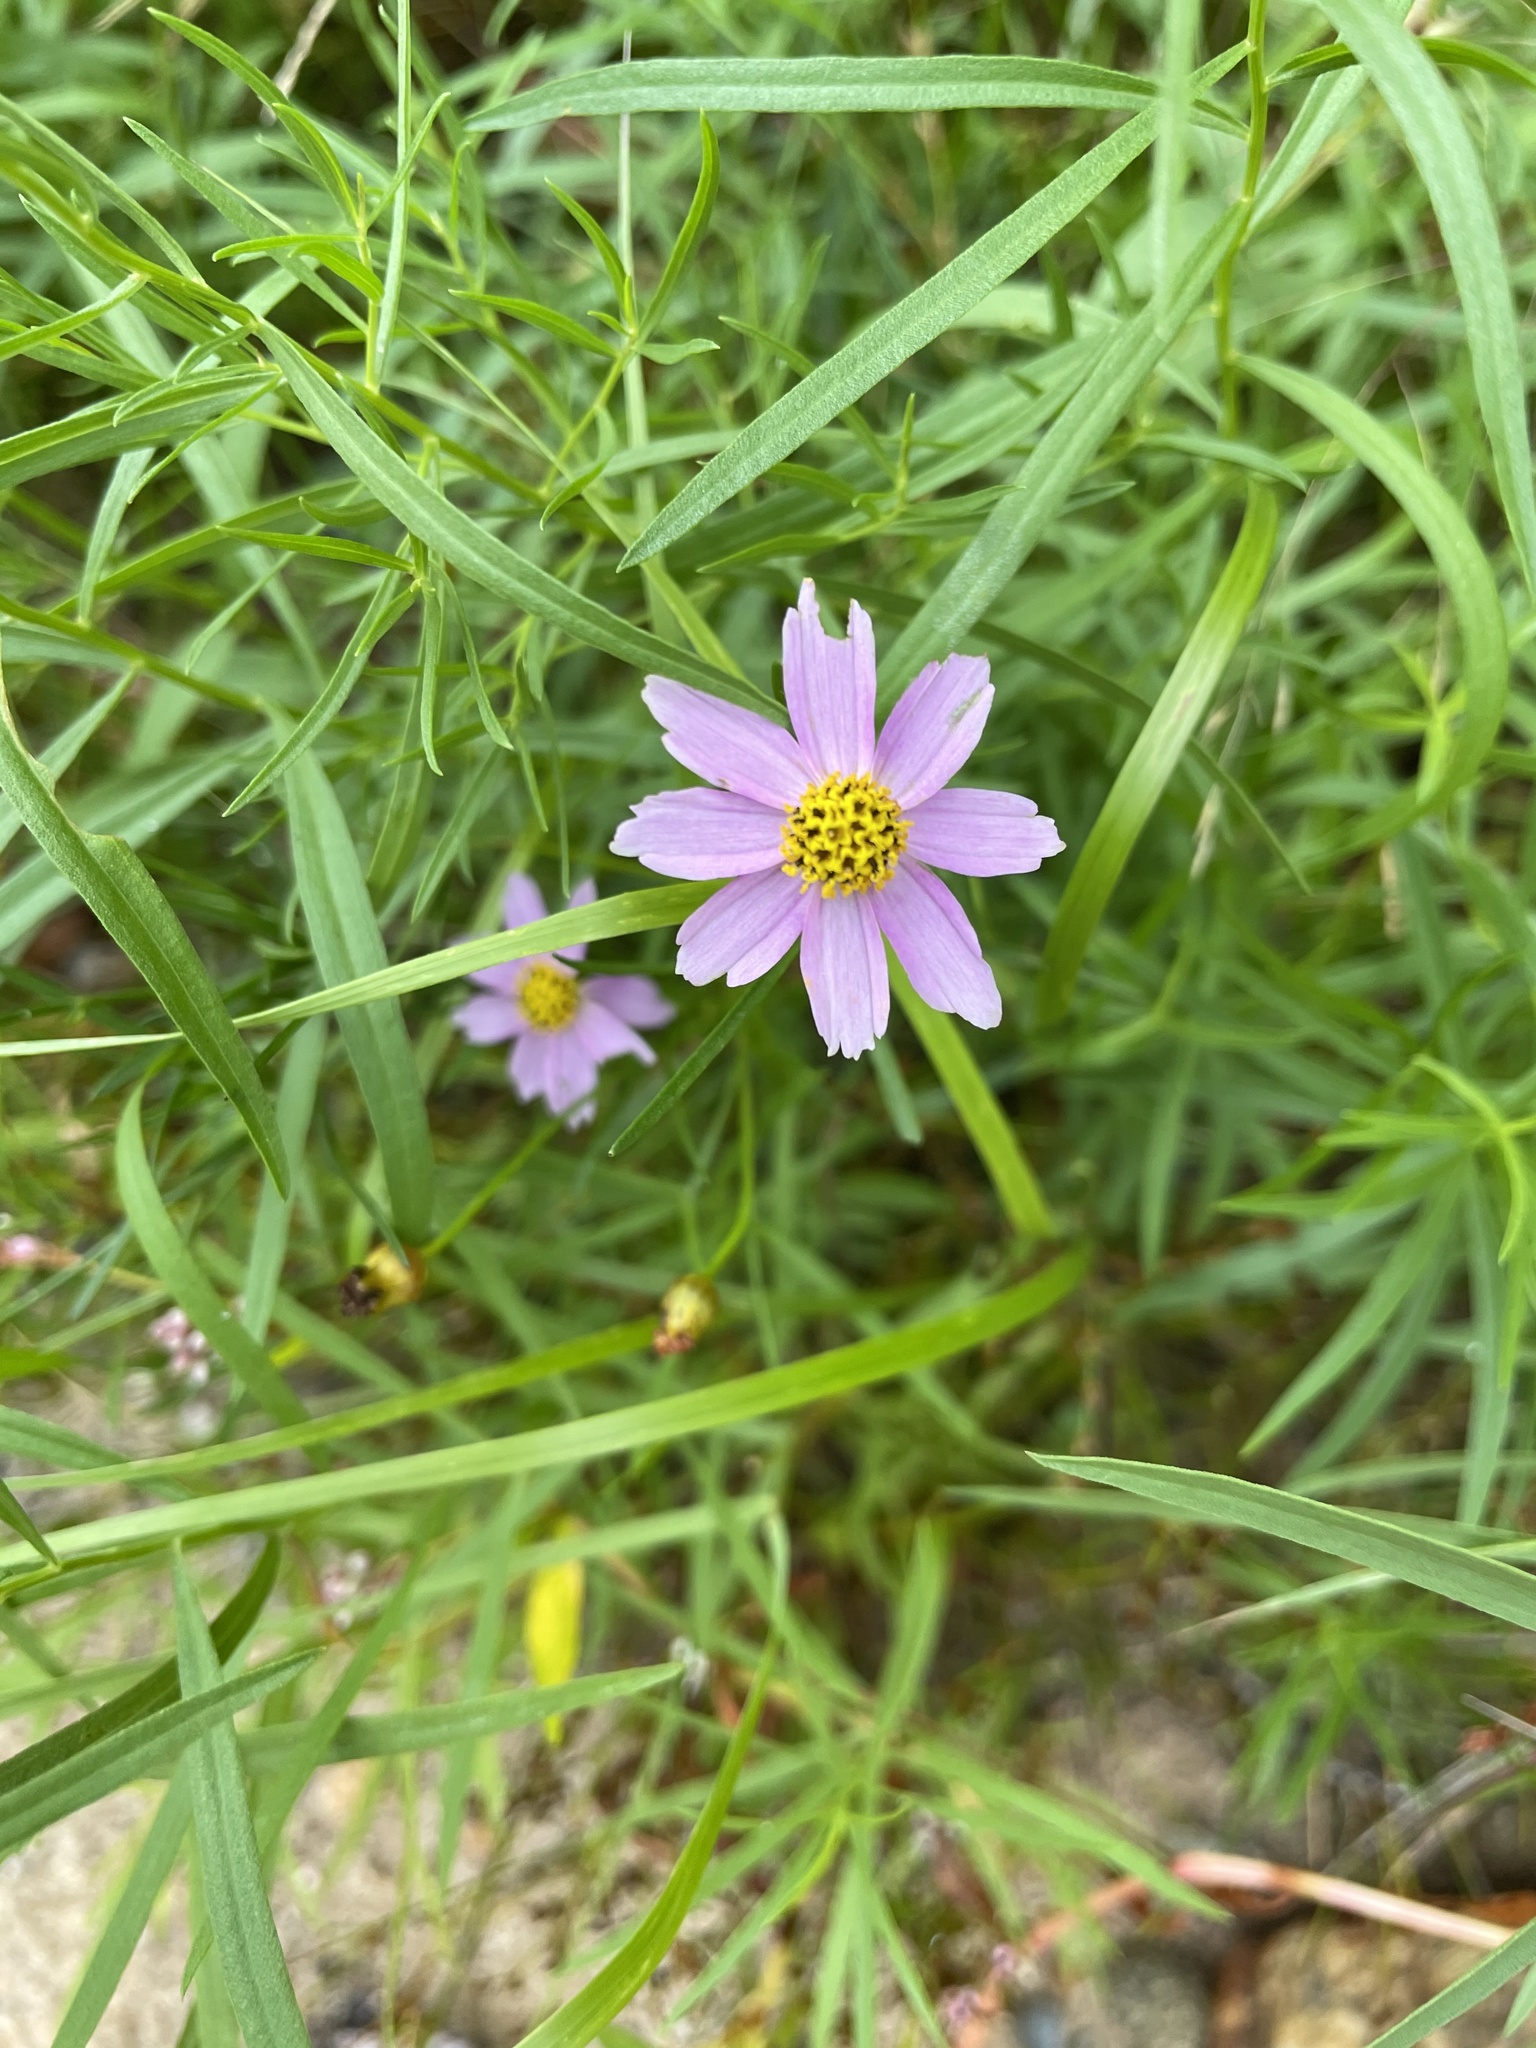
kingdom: Plantae
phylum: Tracheophyta
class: Magnoliopsida
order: Asterales
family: Asteraceae
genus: Coreopsis
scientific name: Coreopsis rosea
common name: Pink coreopsis
